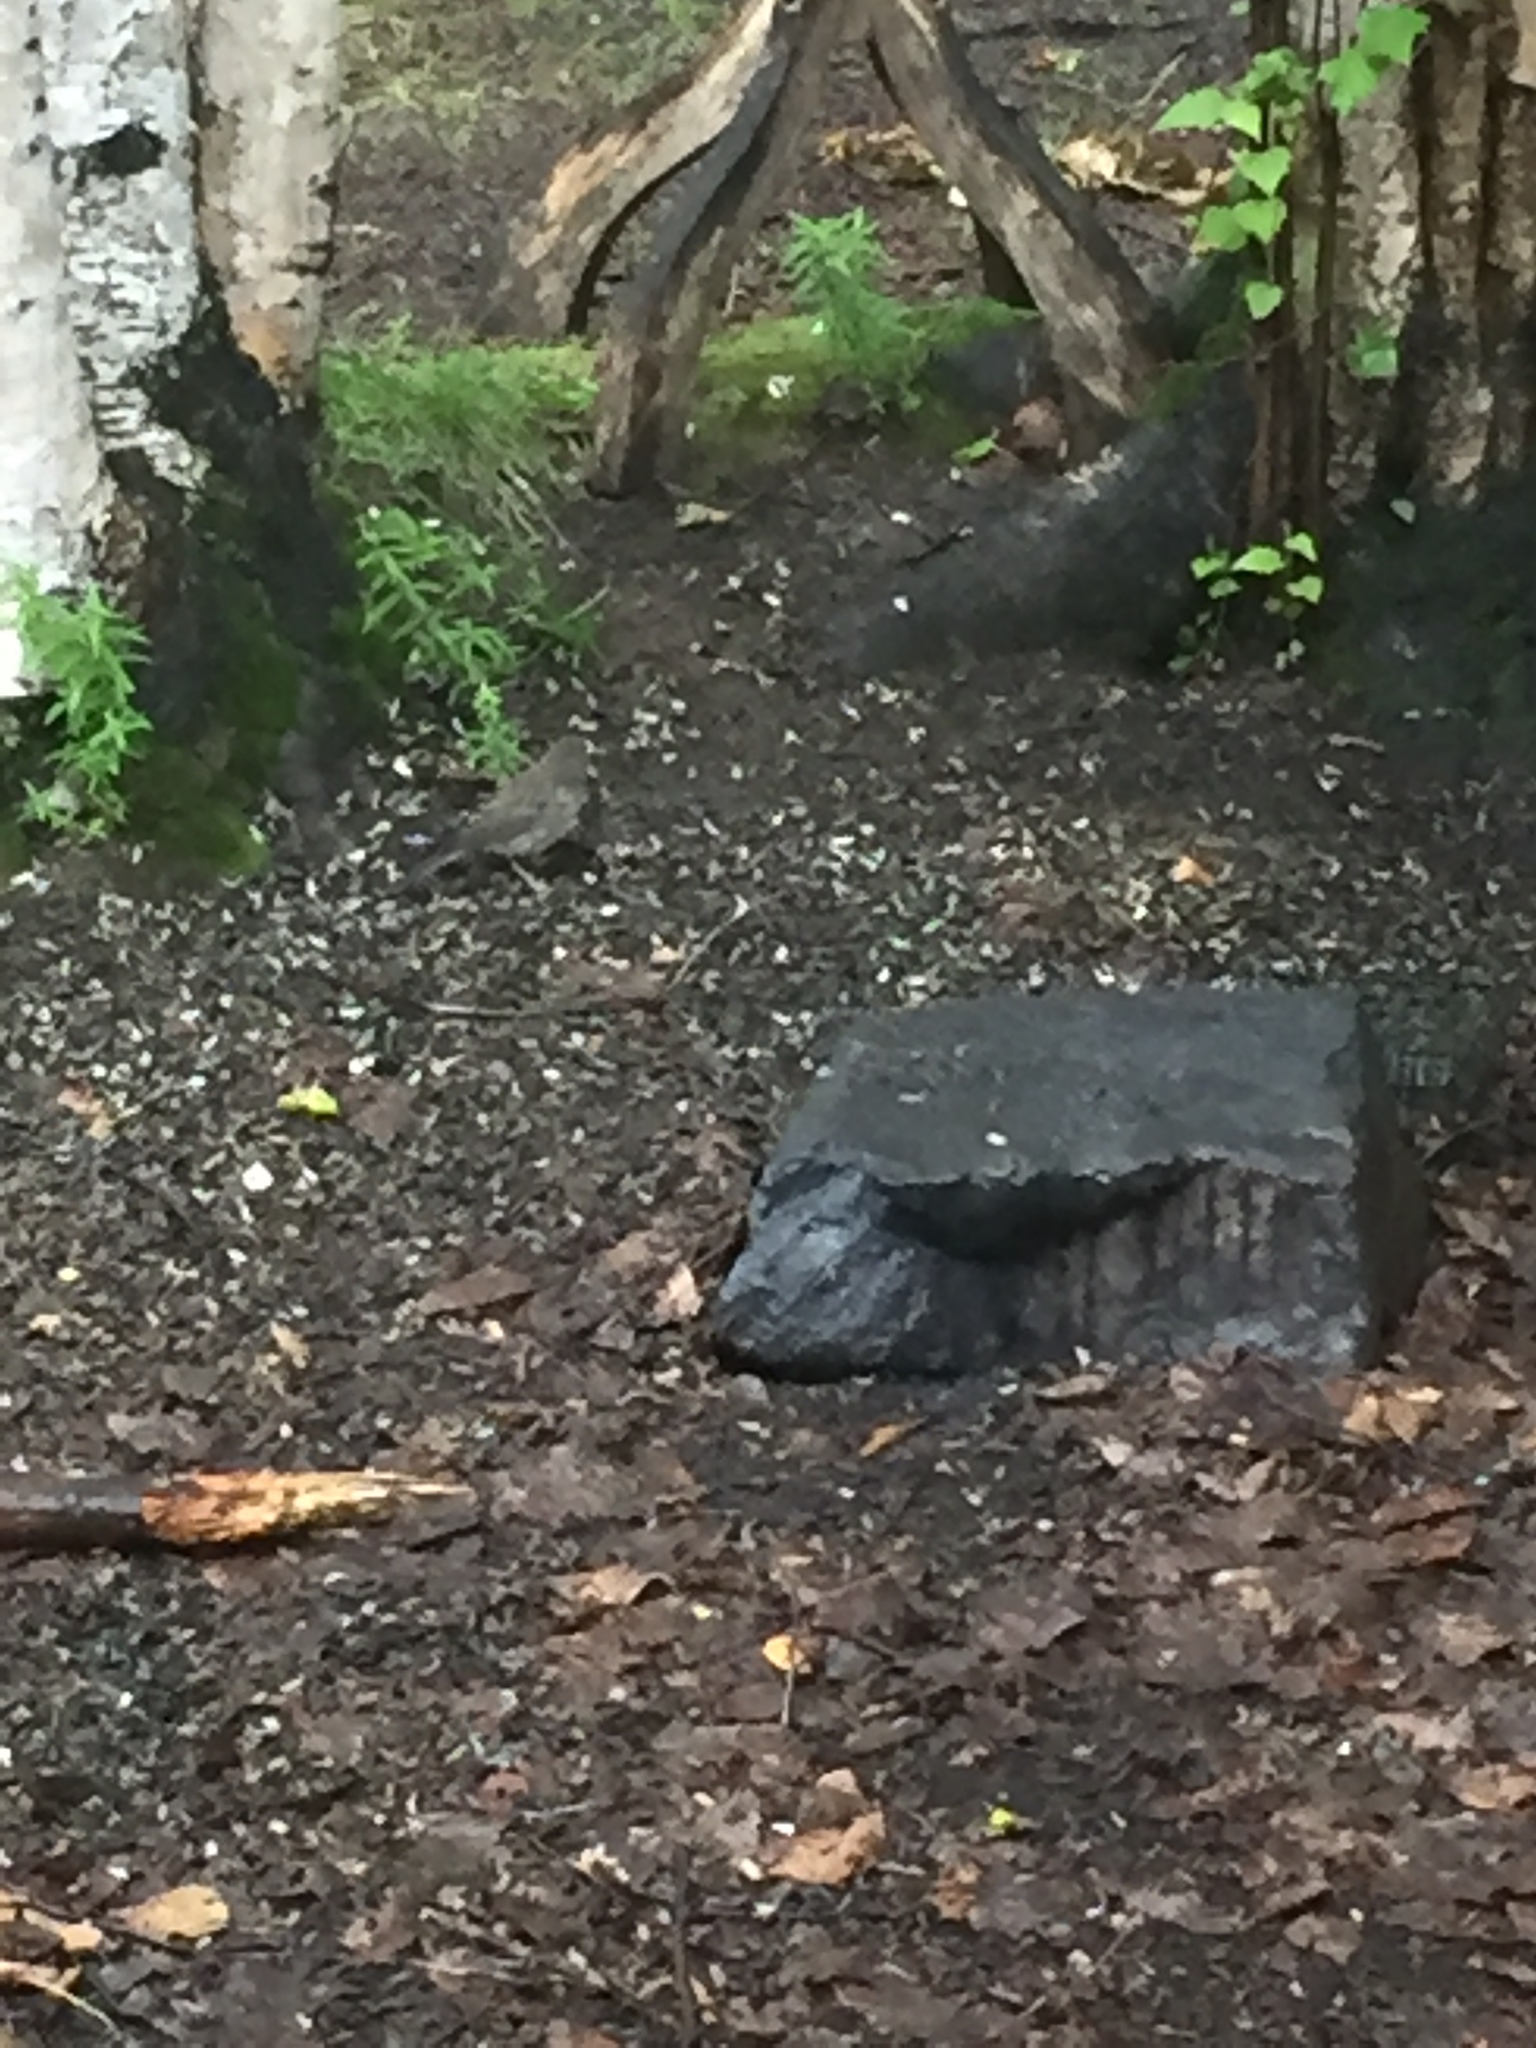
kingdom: Animalia
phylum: Chordata
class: Aves
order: Passeriformes
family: Passerellidae
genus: Junco
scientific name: Junco hyemalis
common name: Dark-eyed junco
